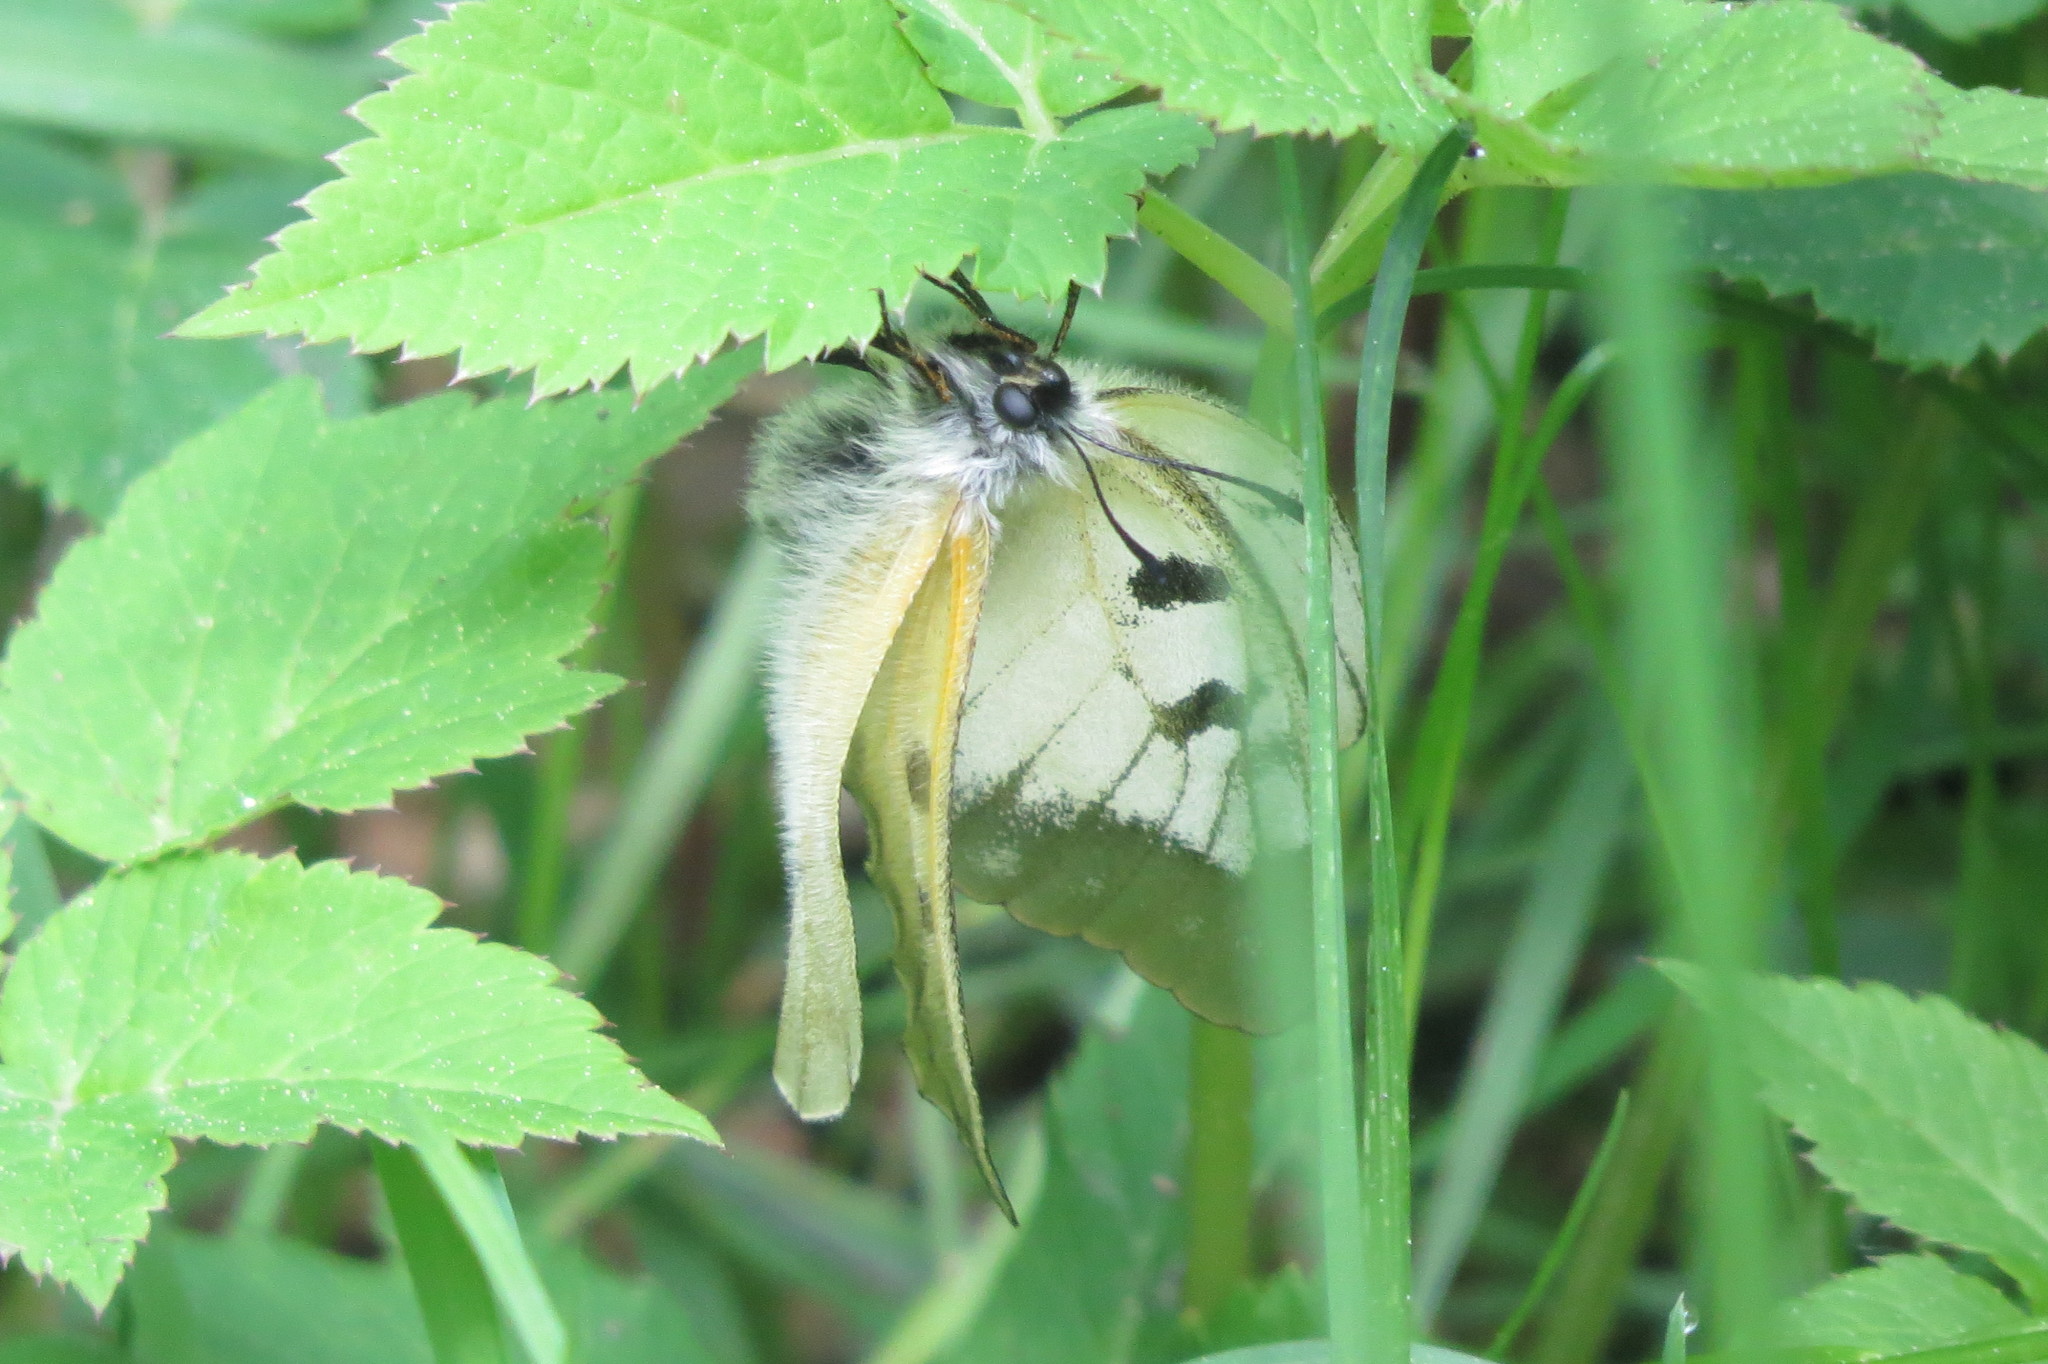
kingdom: Animalia
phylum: Arthropoda
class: Insecta
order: Lepidoptera
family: Papilionidae
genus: Parnassius
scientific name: Parnassius mnemosyne
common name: Clouded apollo
